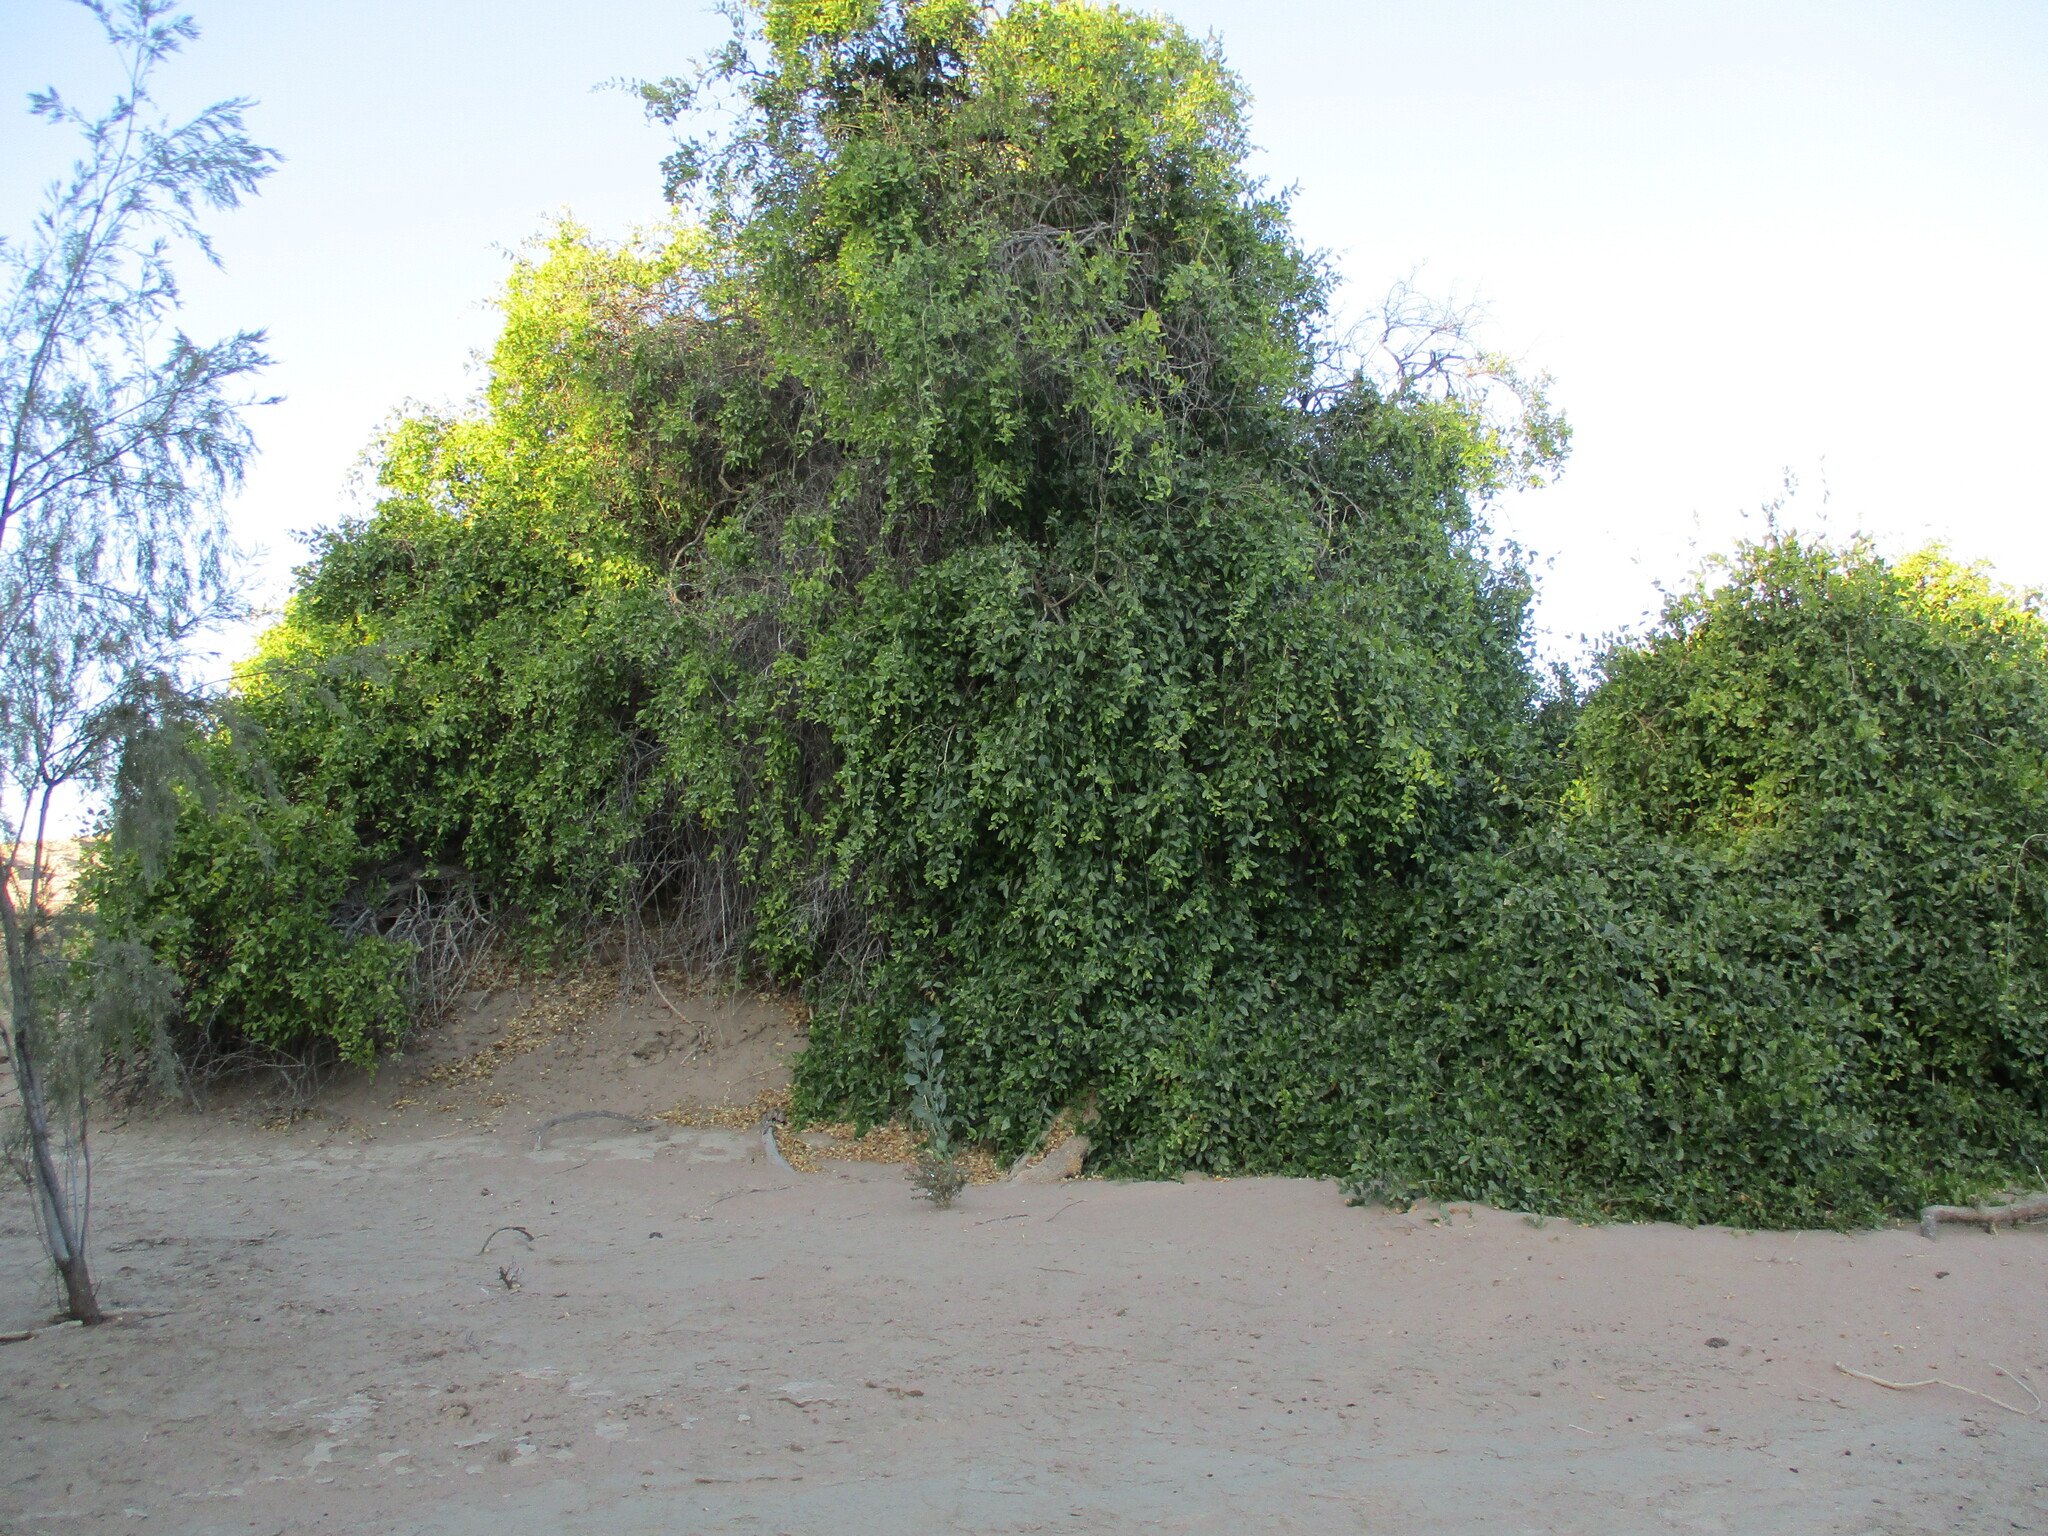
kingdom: Plantae
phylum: Tracheophyta
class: Magnoliopsida
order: Brassicales
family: Salvadoraceae
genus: Salvadora
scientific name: Salvadora persica
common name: Toothbrushtree
